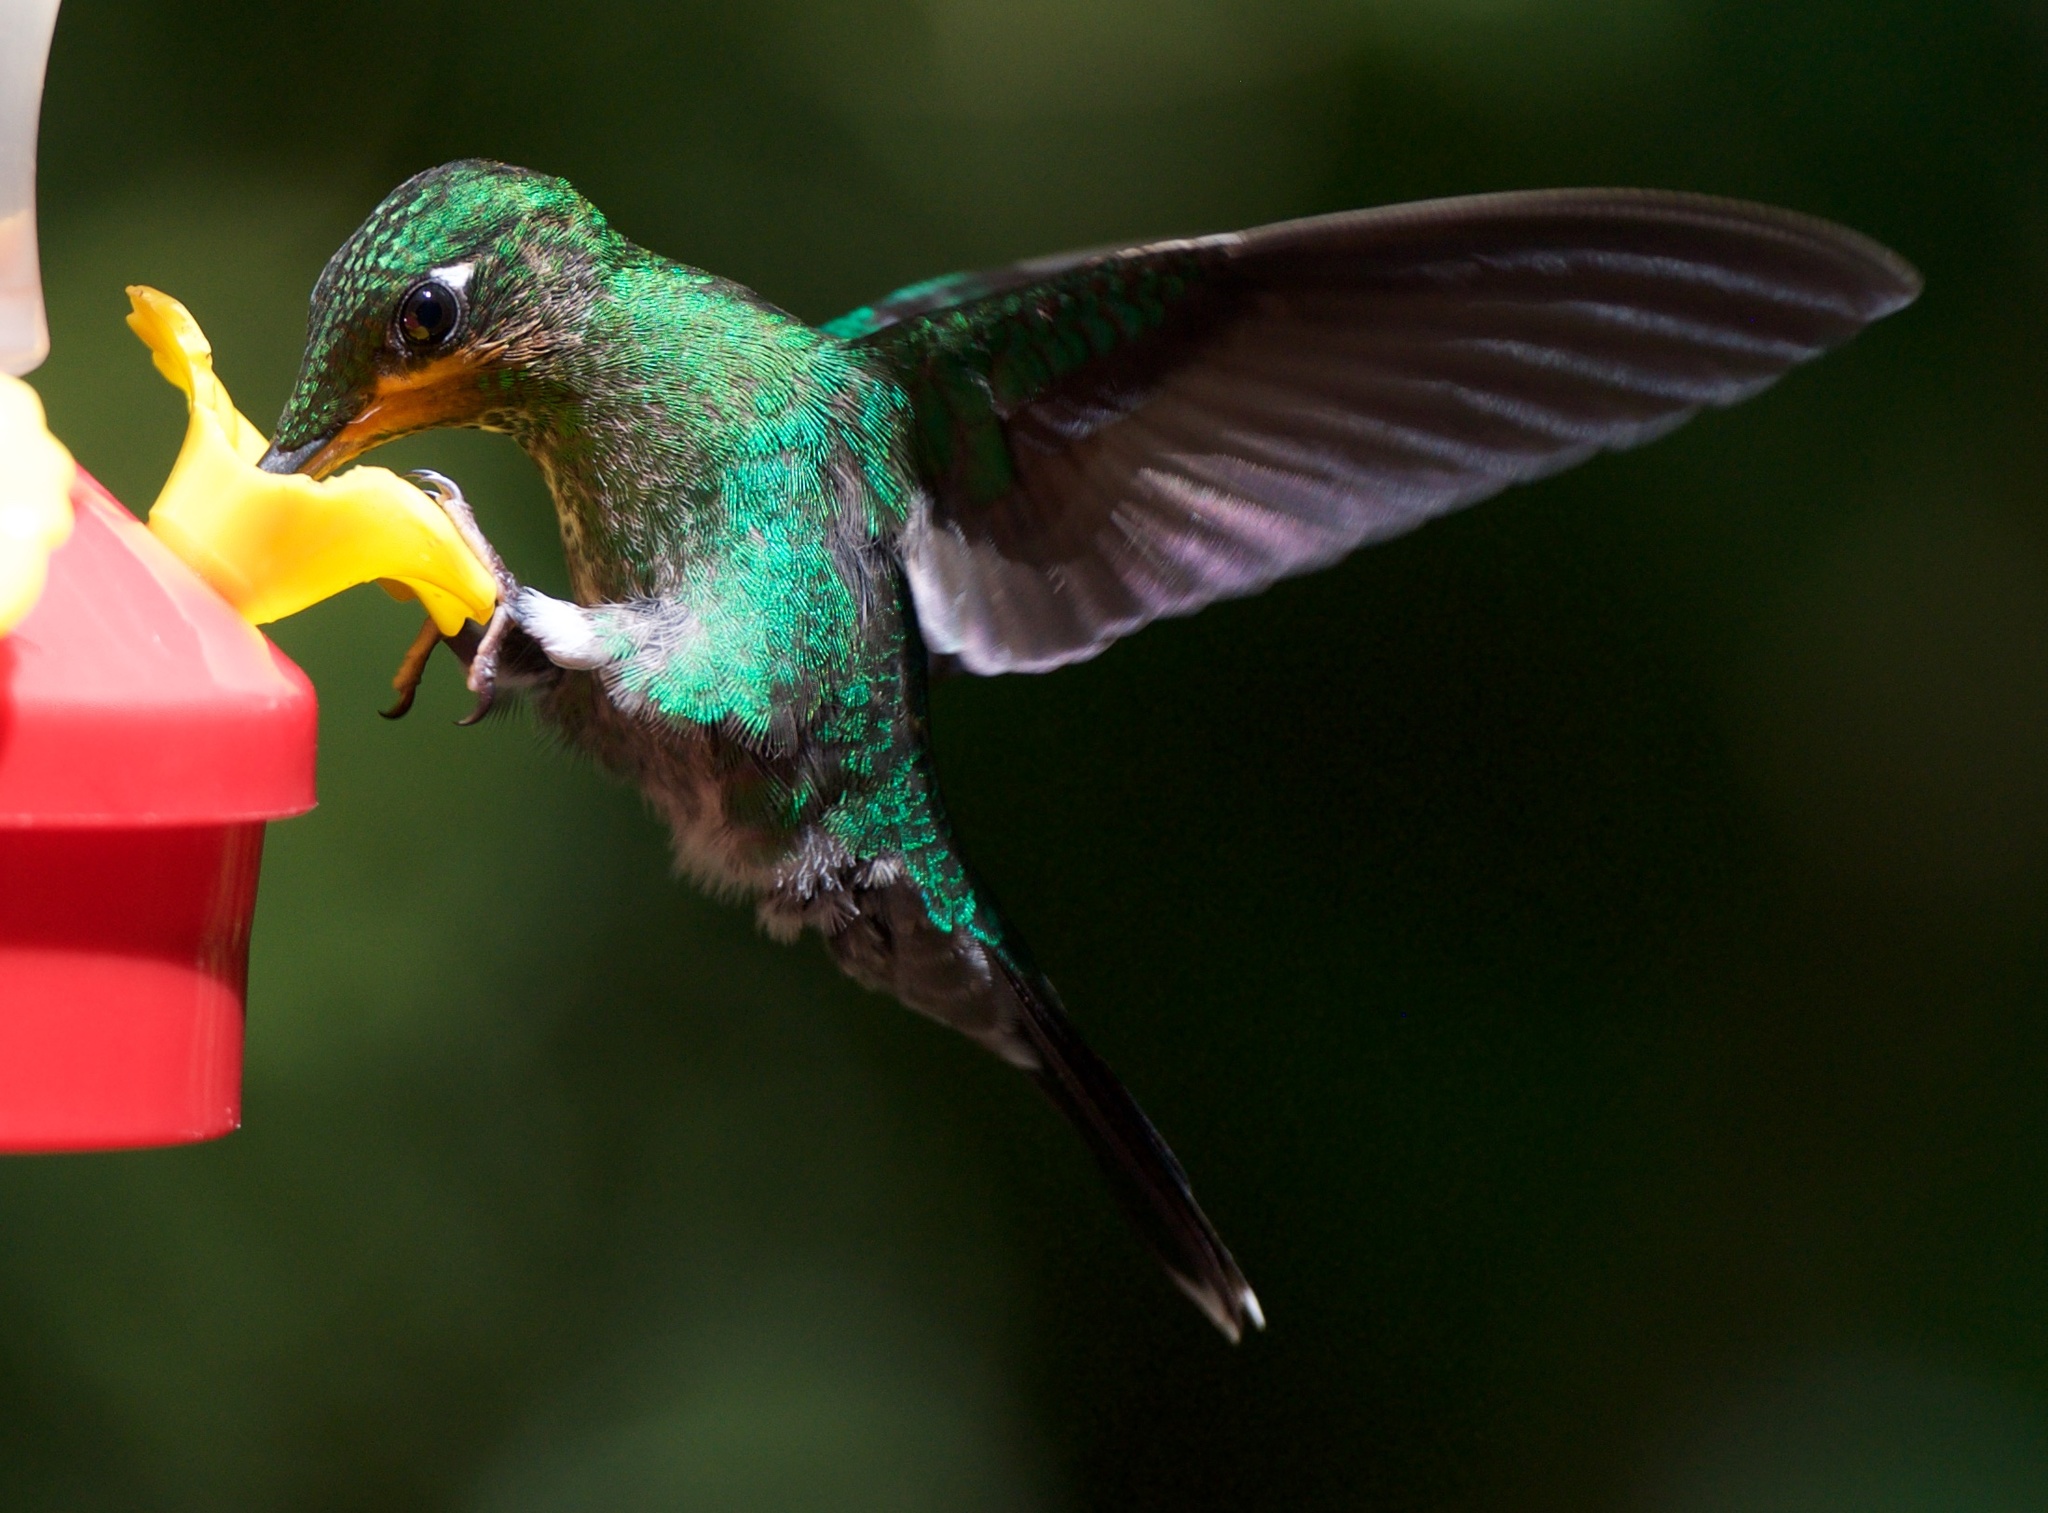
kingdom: Animalia
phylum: Chordata
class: Aves
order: Apodiformes
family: Trochilidae
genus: Heliodoxa
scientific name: Heliodoxa jacula
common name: Green-crowned brilliant
